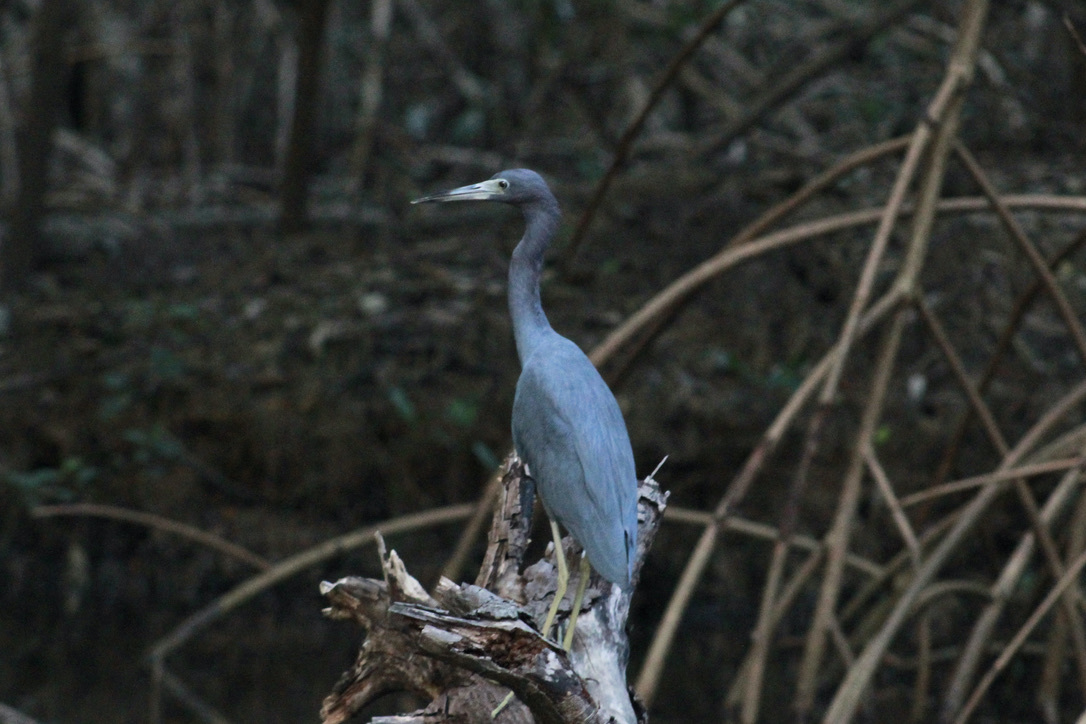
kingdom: Animalia
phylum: Chordata
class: Aves
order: Pelecaniformes
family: Ardeidae
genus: Egretta
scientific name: Egretta caerulea
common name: Little blue heron
